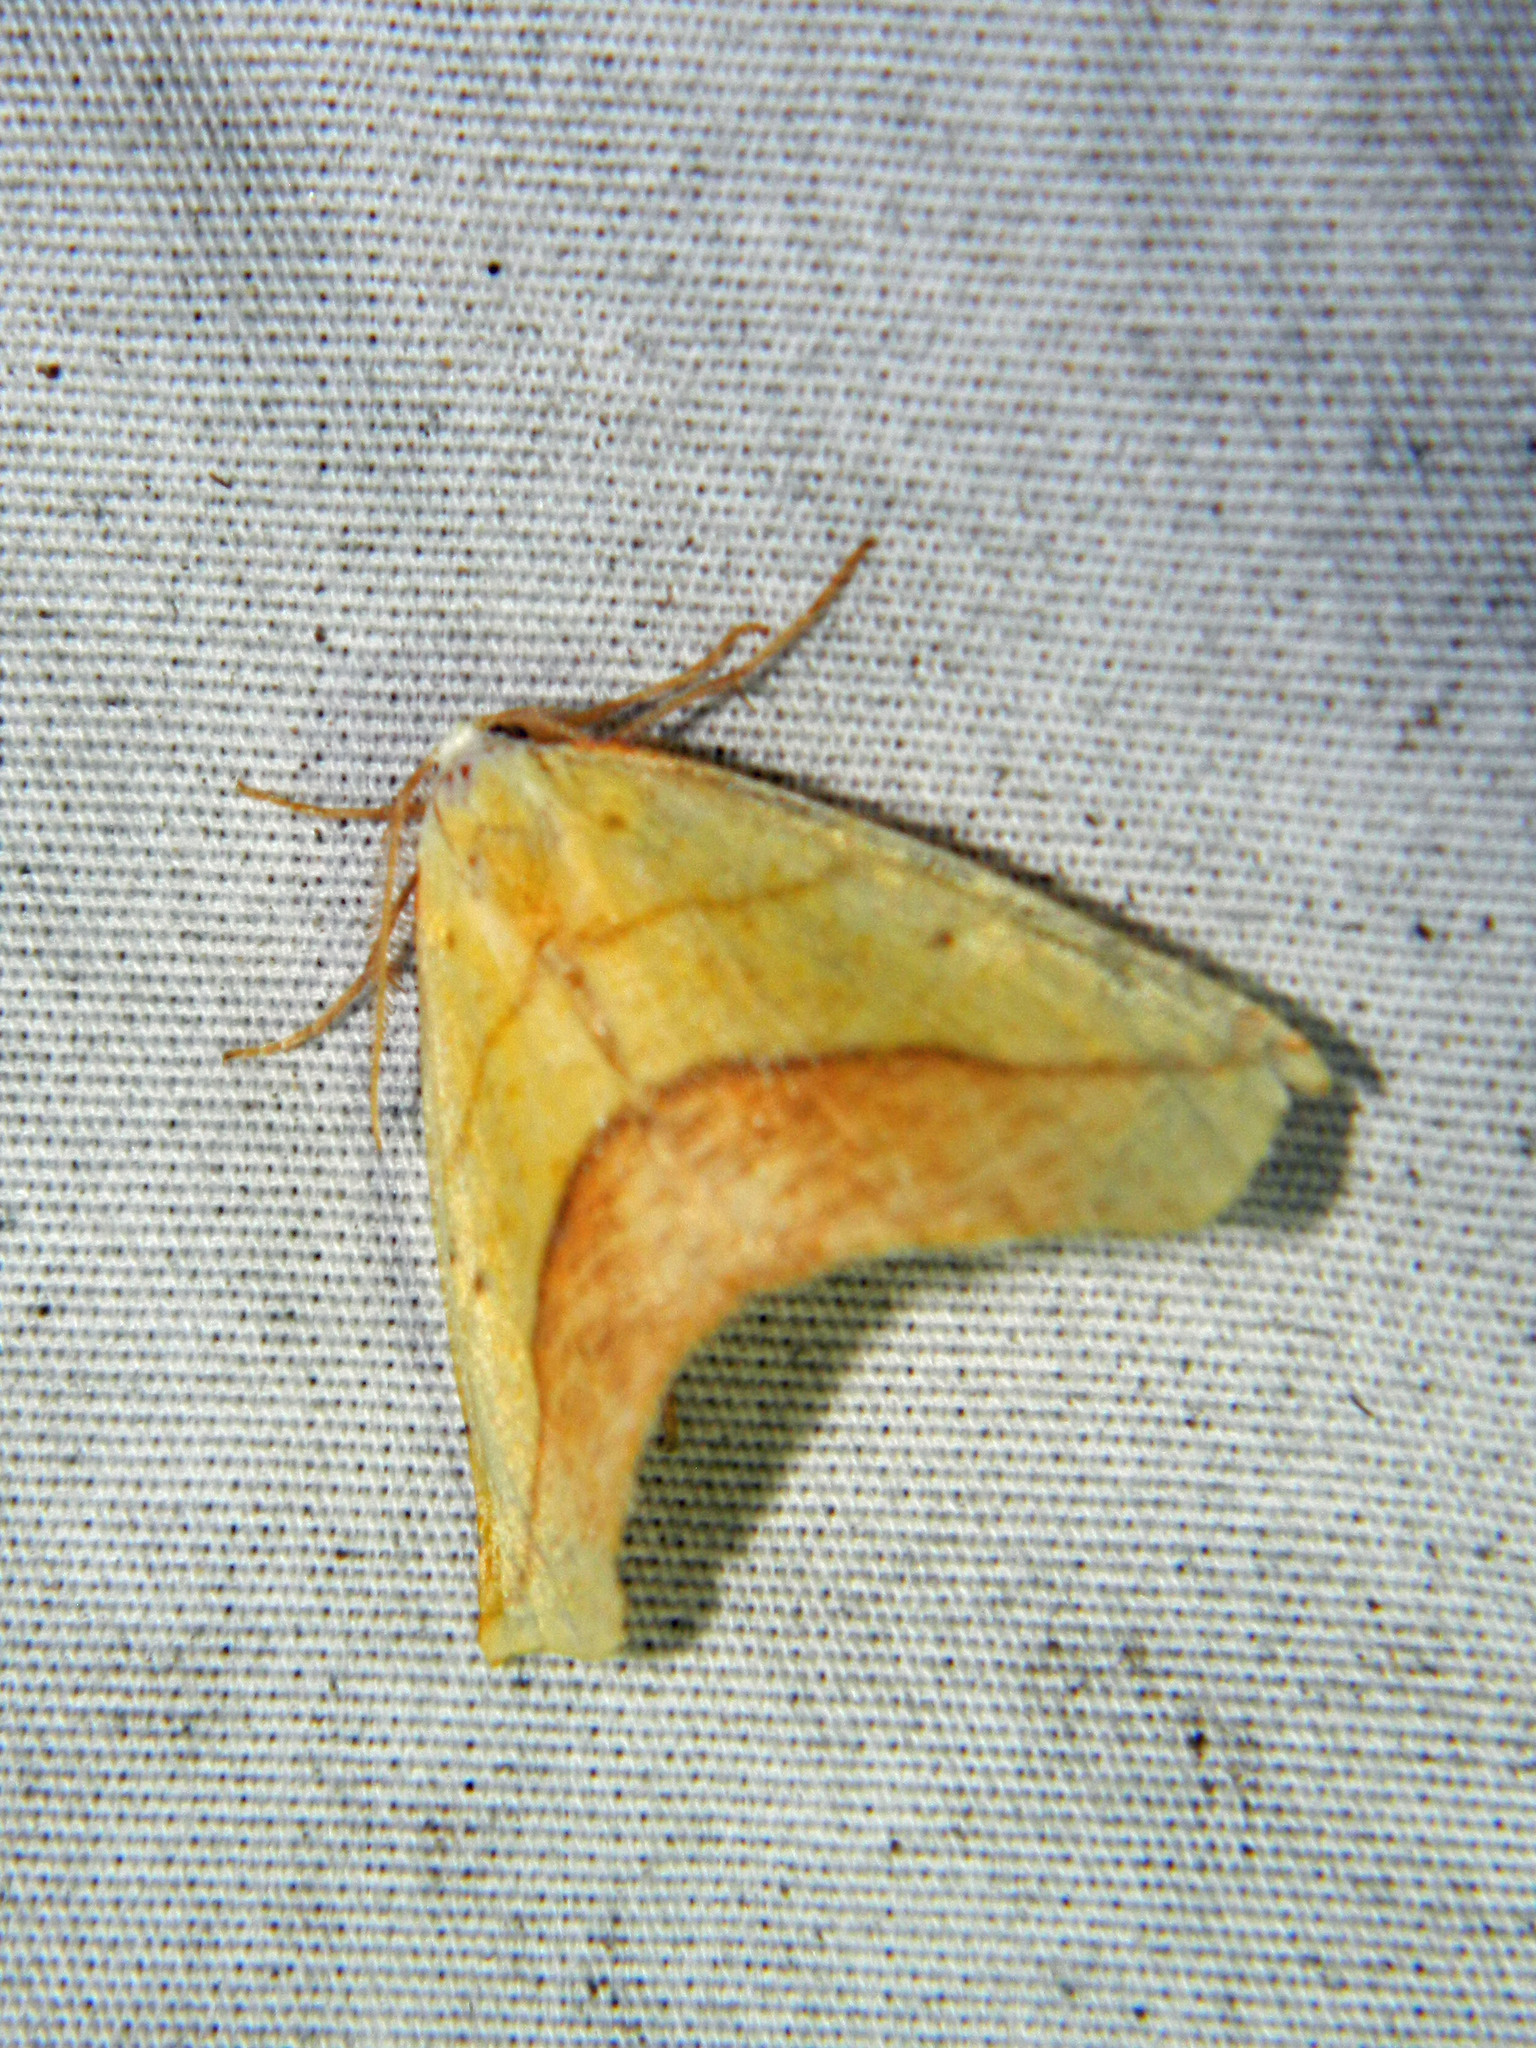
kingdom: Animalia
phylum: Arthropoda
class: Insecta
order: Lepidoptera
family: Geometridae
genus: Sicya
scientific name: Sicya macularia
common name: Sharp-lined yellow
